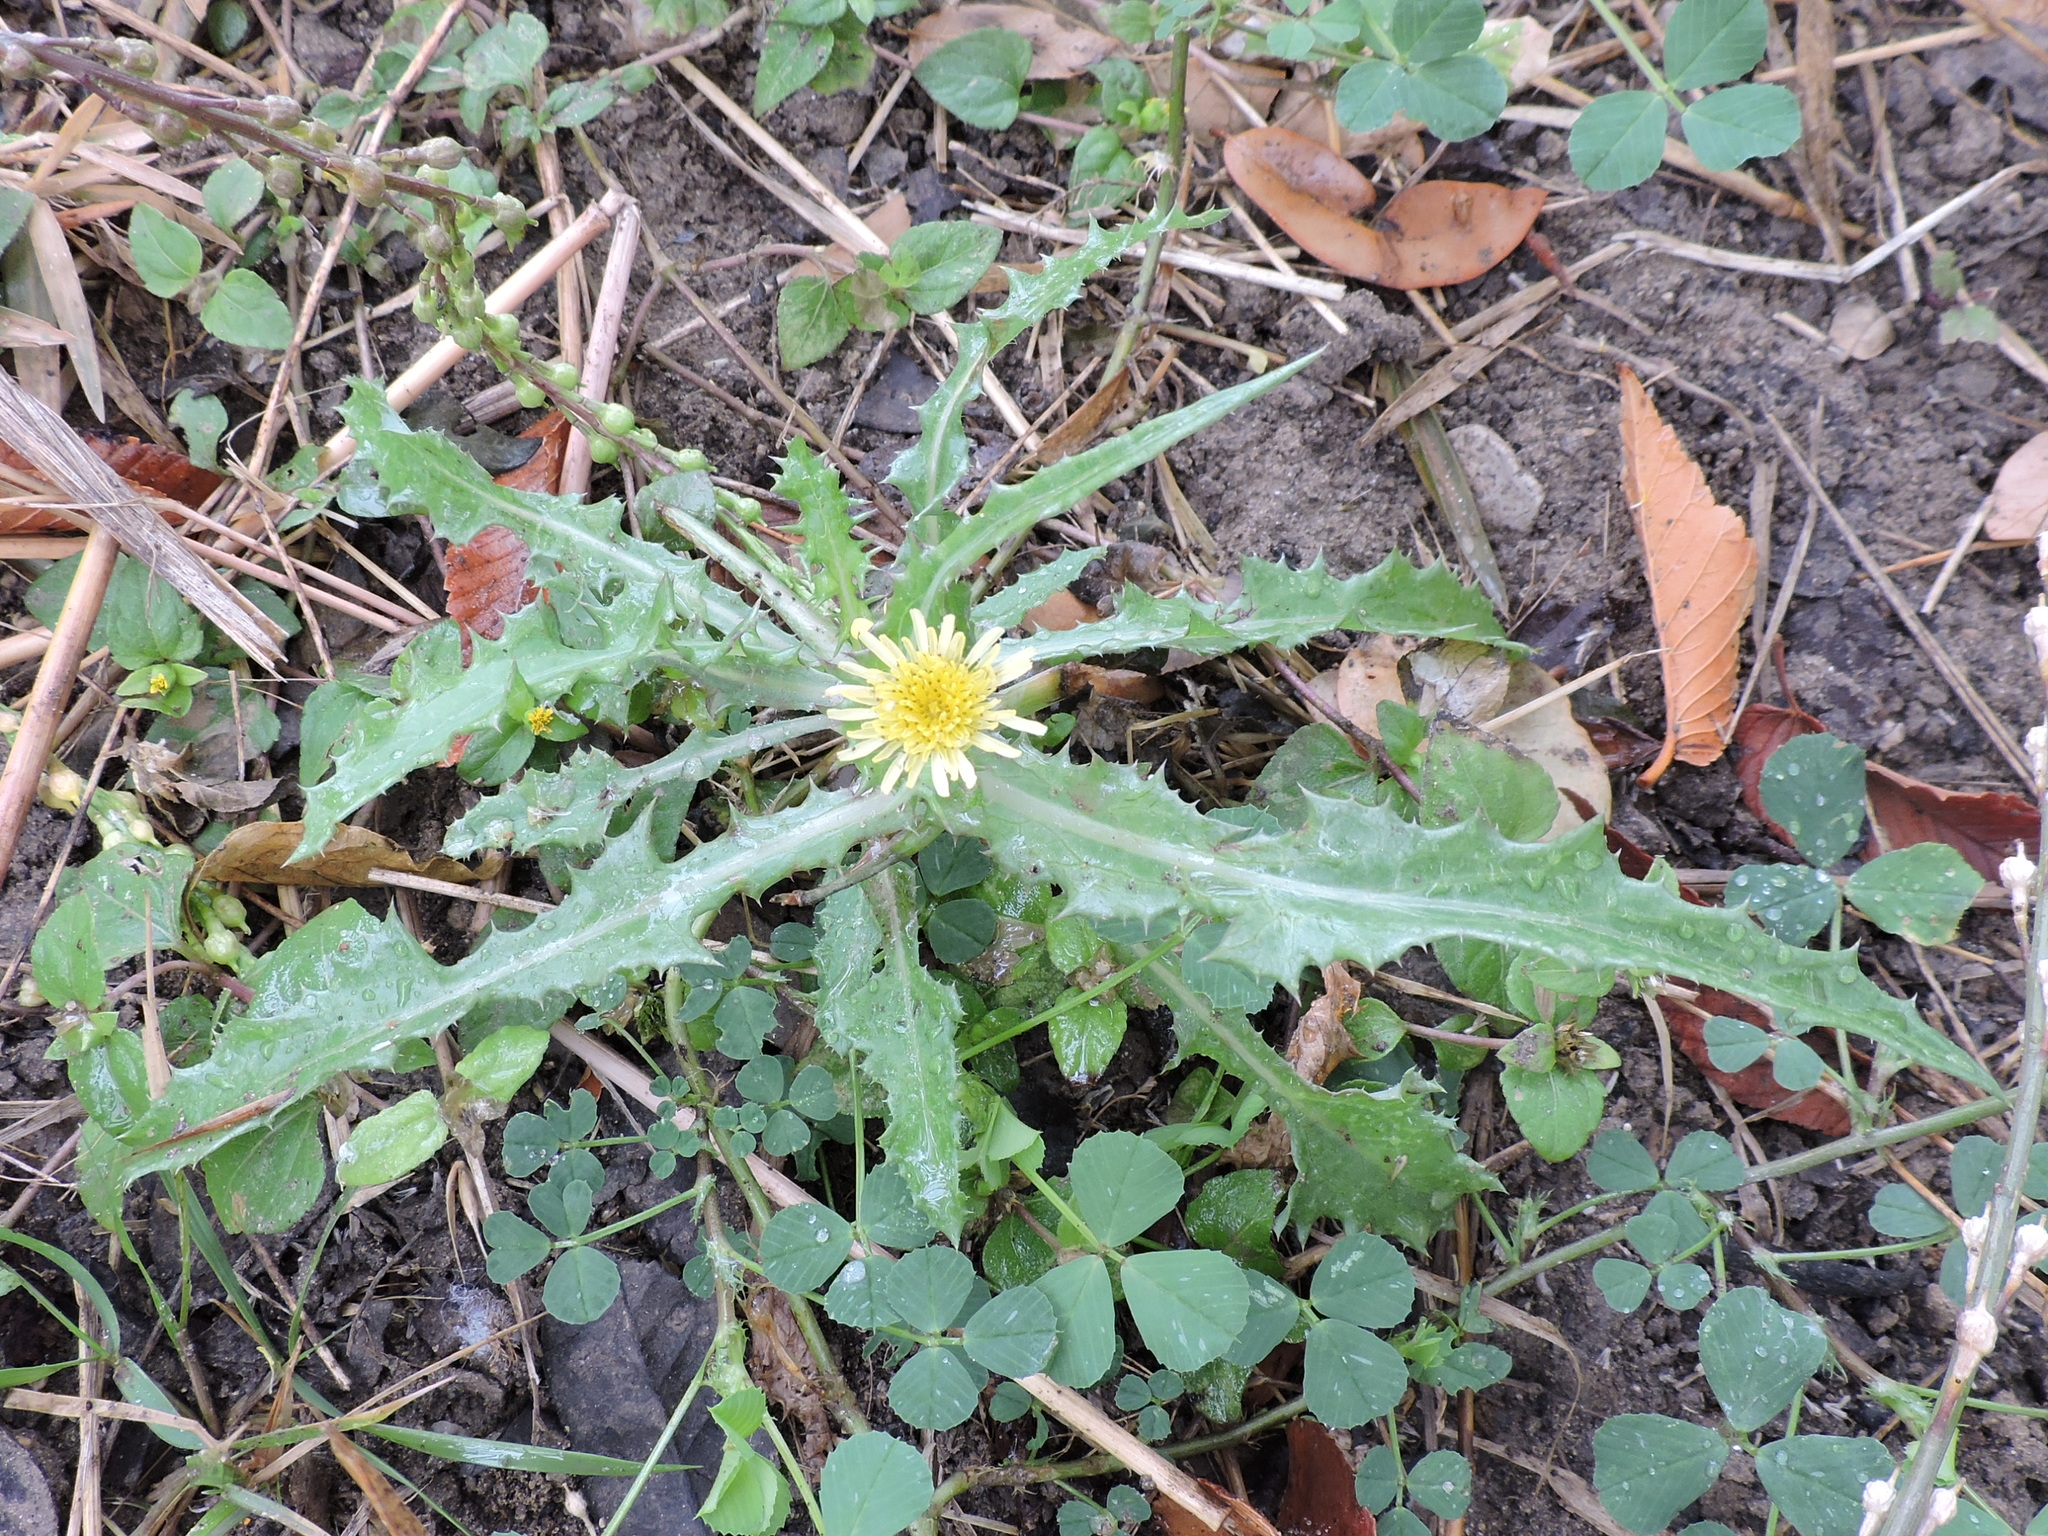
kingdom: Plantae
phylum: Tracheophyta
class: Magnoliopsida
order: Asterales
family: Asteraceae
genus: Sonchus
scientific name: Sonchus asper
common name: Prickly sow-thistle
